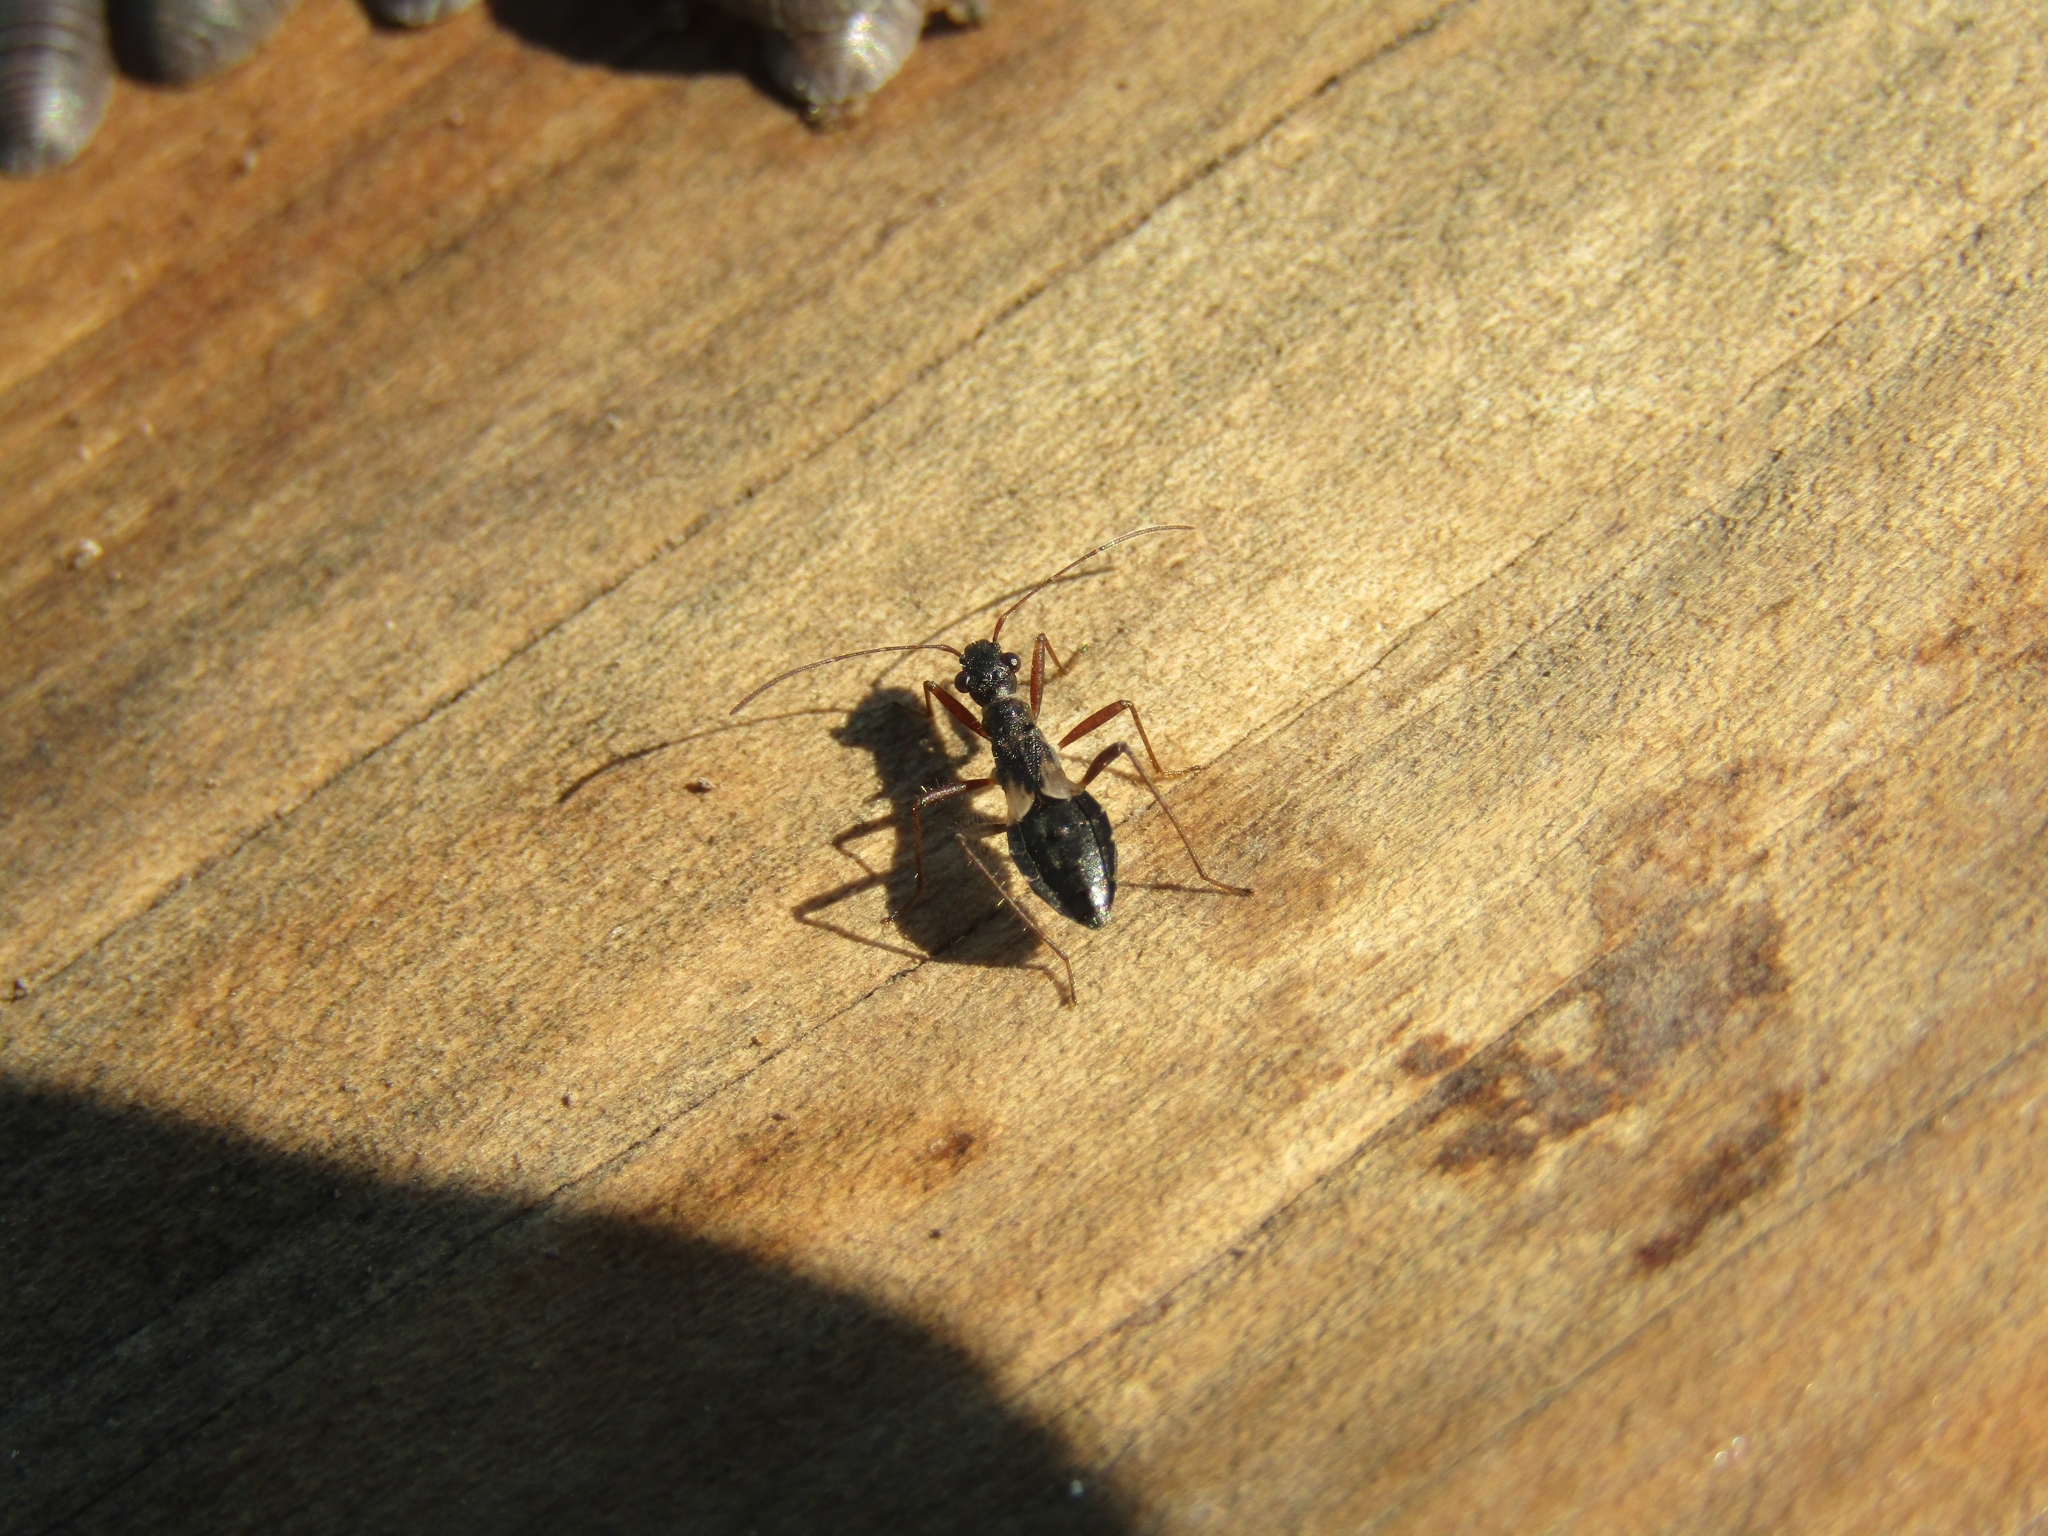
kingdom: Animalia
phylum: Arthropoda
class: Insecta
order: Hemiptera
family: Alydidae
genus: Cydamus
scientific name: Cydamus celeripes
